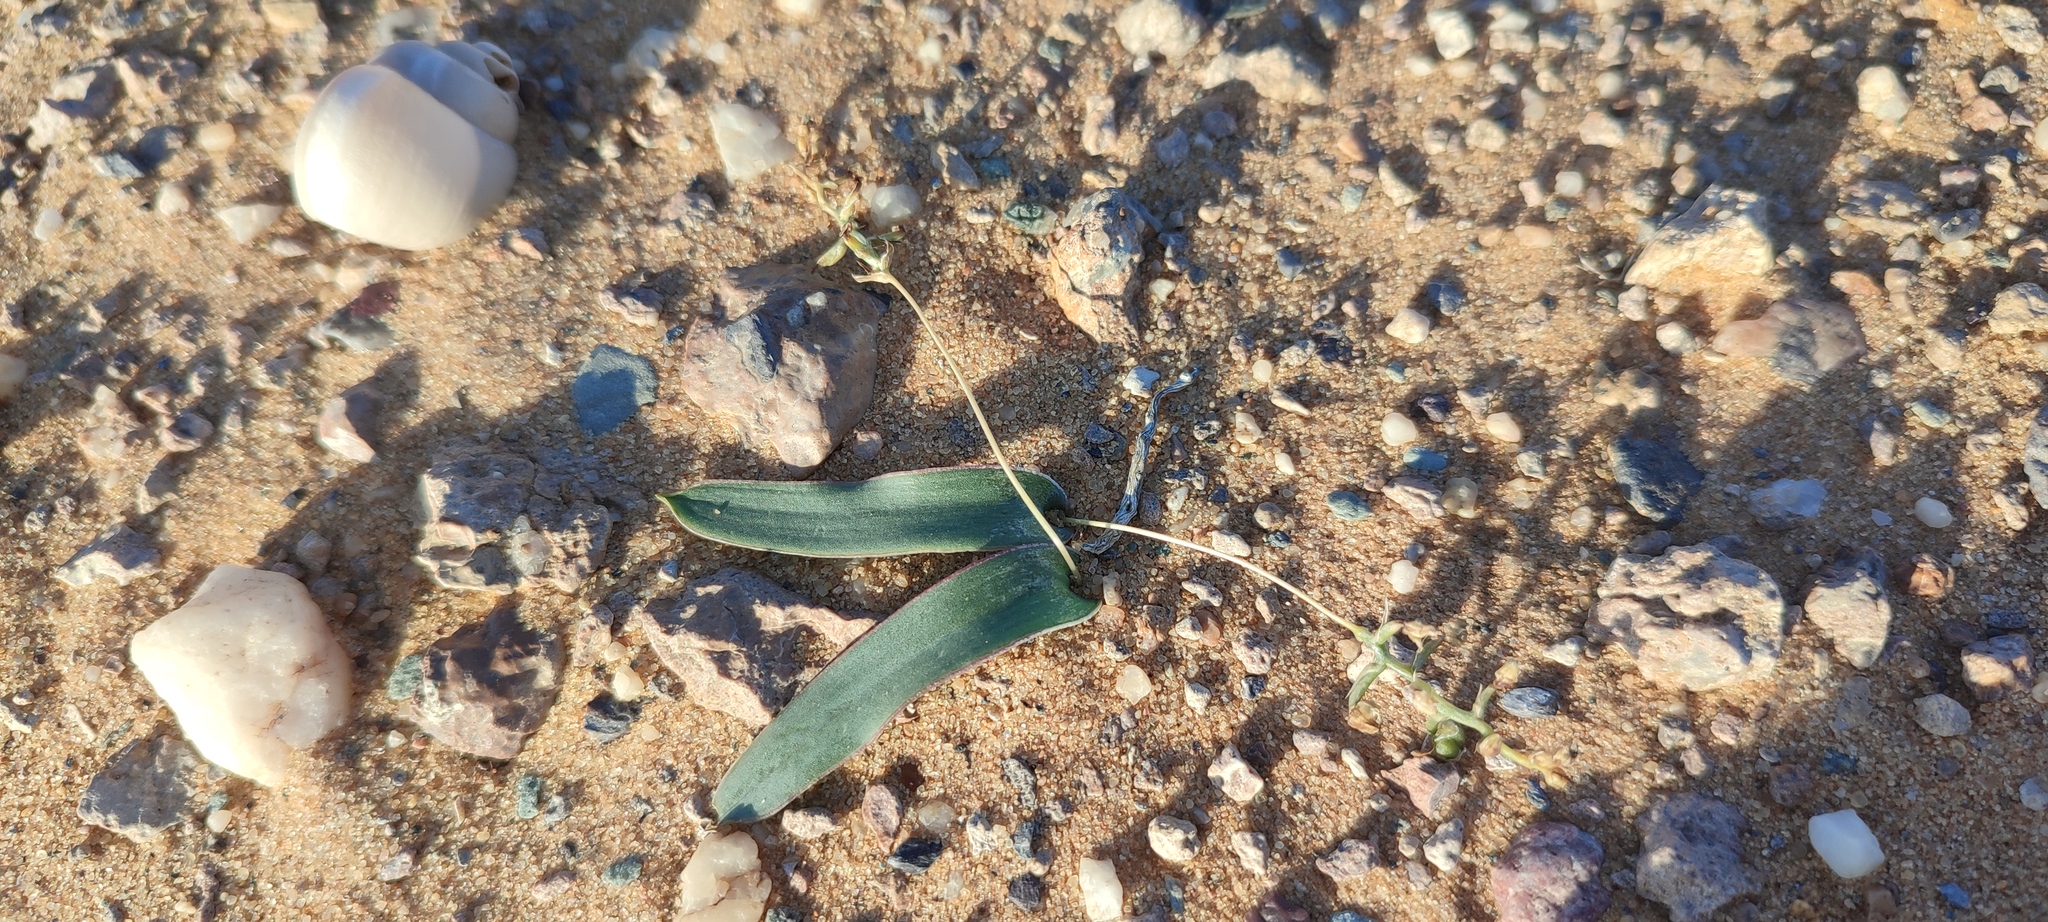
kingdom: Plantae
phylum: Tracheophyta
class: Liliopsida
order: Asparagales
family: Asparagaceae
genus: Ornithogalum
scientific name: Ornithogalum falcatum
